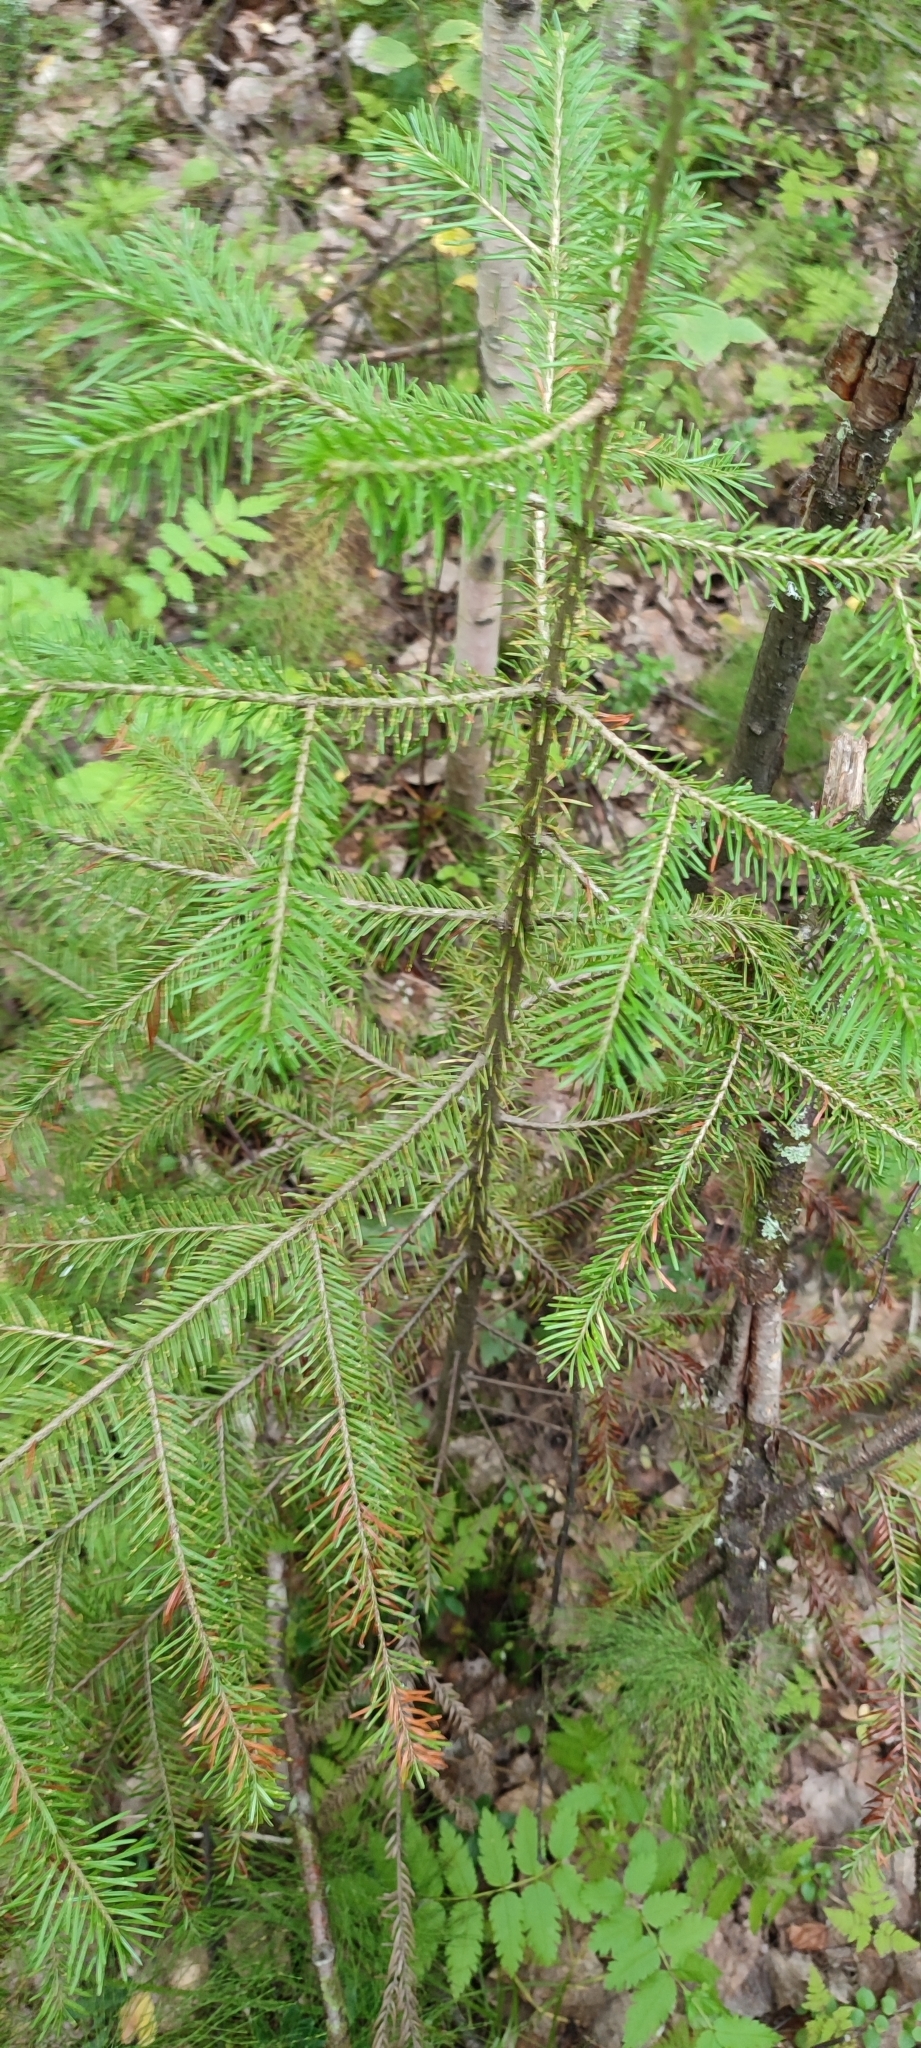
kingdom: Plantae
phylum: Tracheophyta
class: Pinopsida
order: Pinales
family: Pinaceae
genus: Abies
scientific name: Abies sibirica
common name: Siberian fir
